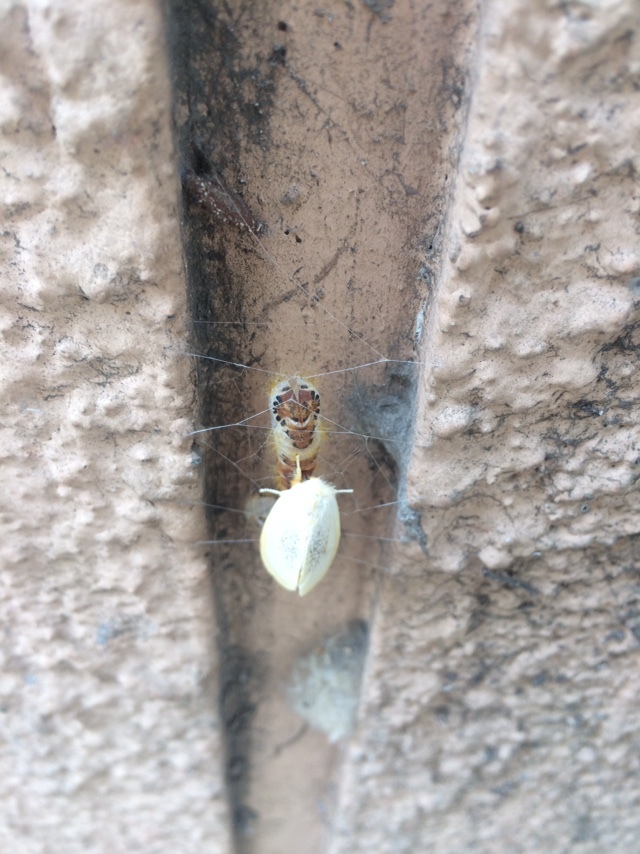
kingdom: Animalia
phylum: Arthropoda
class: Insecta
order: Lepidoptera
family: Erebidae
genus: Perina
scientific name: Perina nuda
